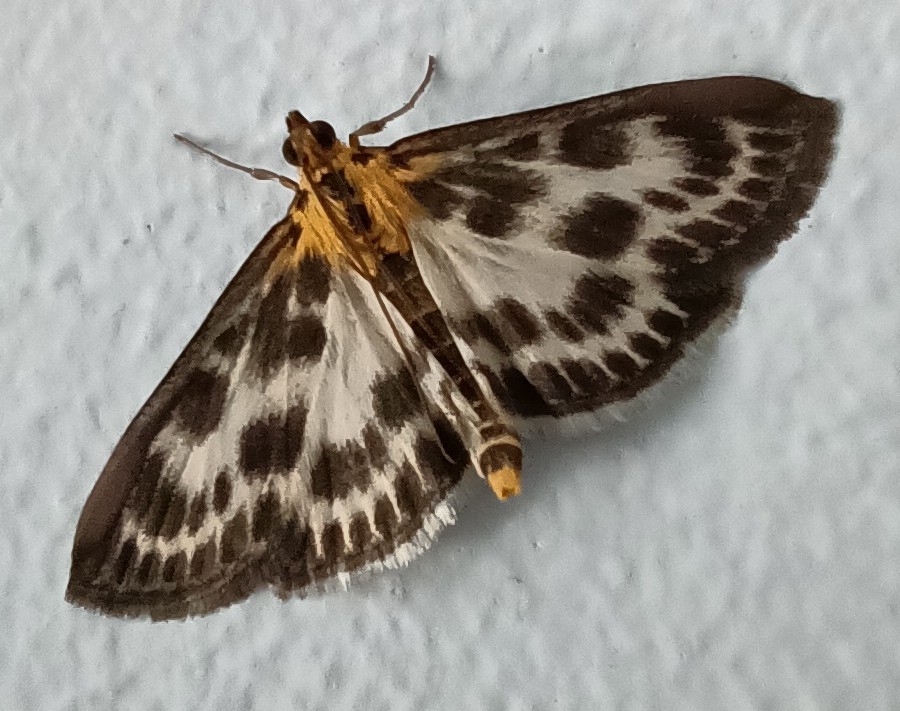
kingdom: Animalia
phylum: Arthropoda
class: Insecta
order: Lepidoptera
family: Crambidae
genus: Anania
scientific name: Anania hortulata
